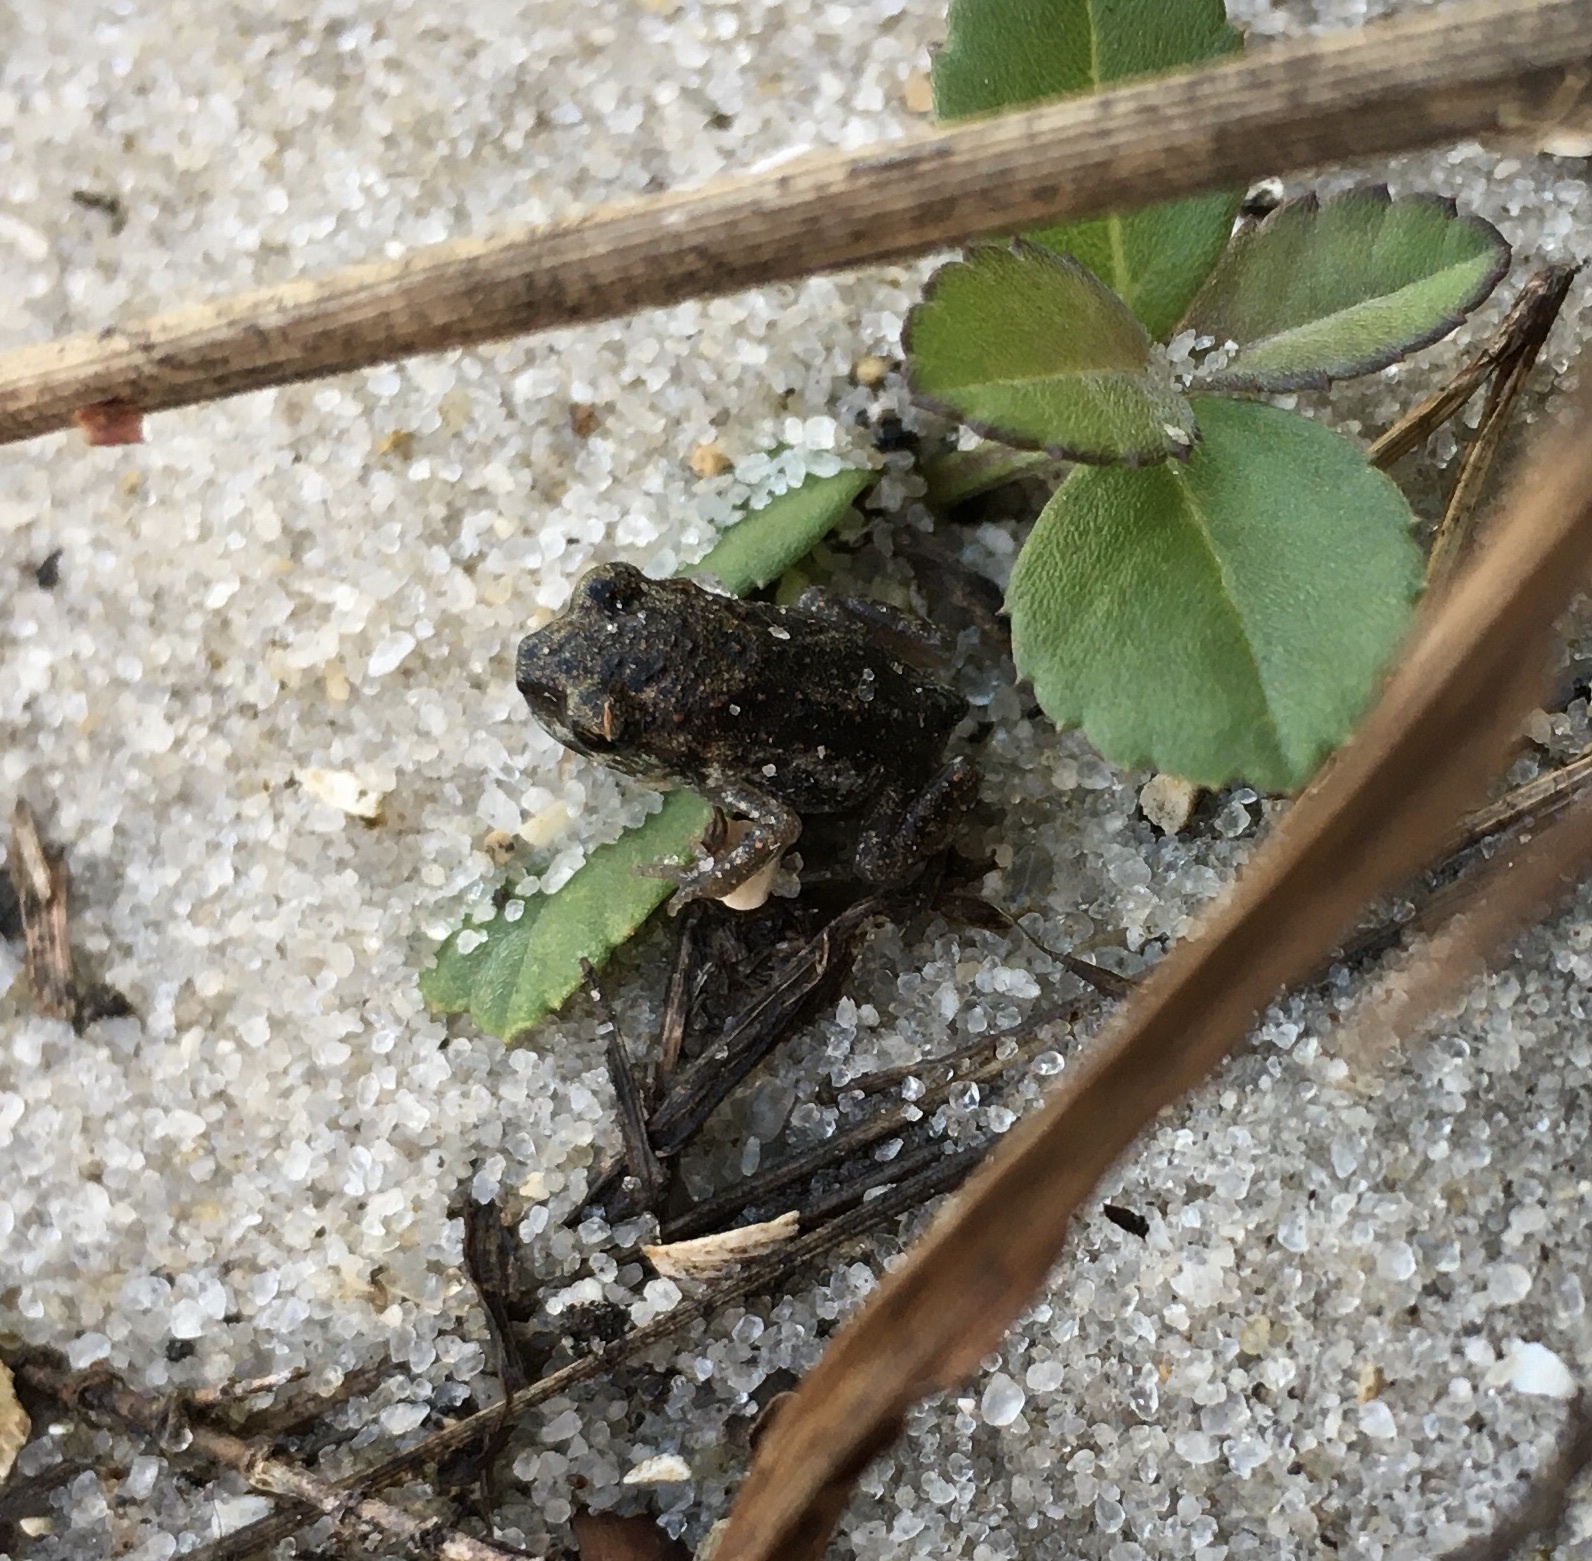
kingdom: Animalia
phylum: Chordata
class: Amphibia
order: Anura
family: Scaphiopodidae
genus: Scaphiopus
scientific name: Scaphiopus holbrookii
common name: Eastern spadefoot toad
